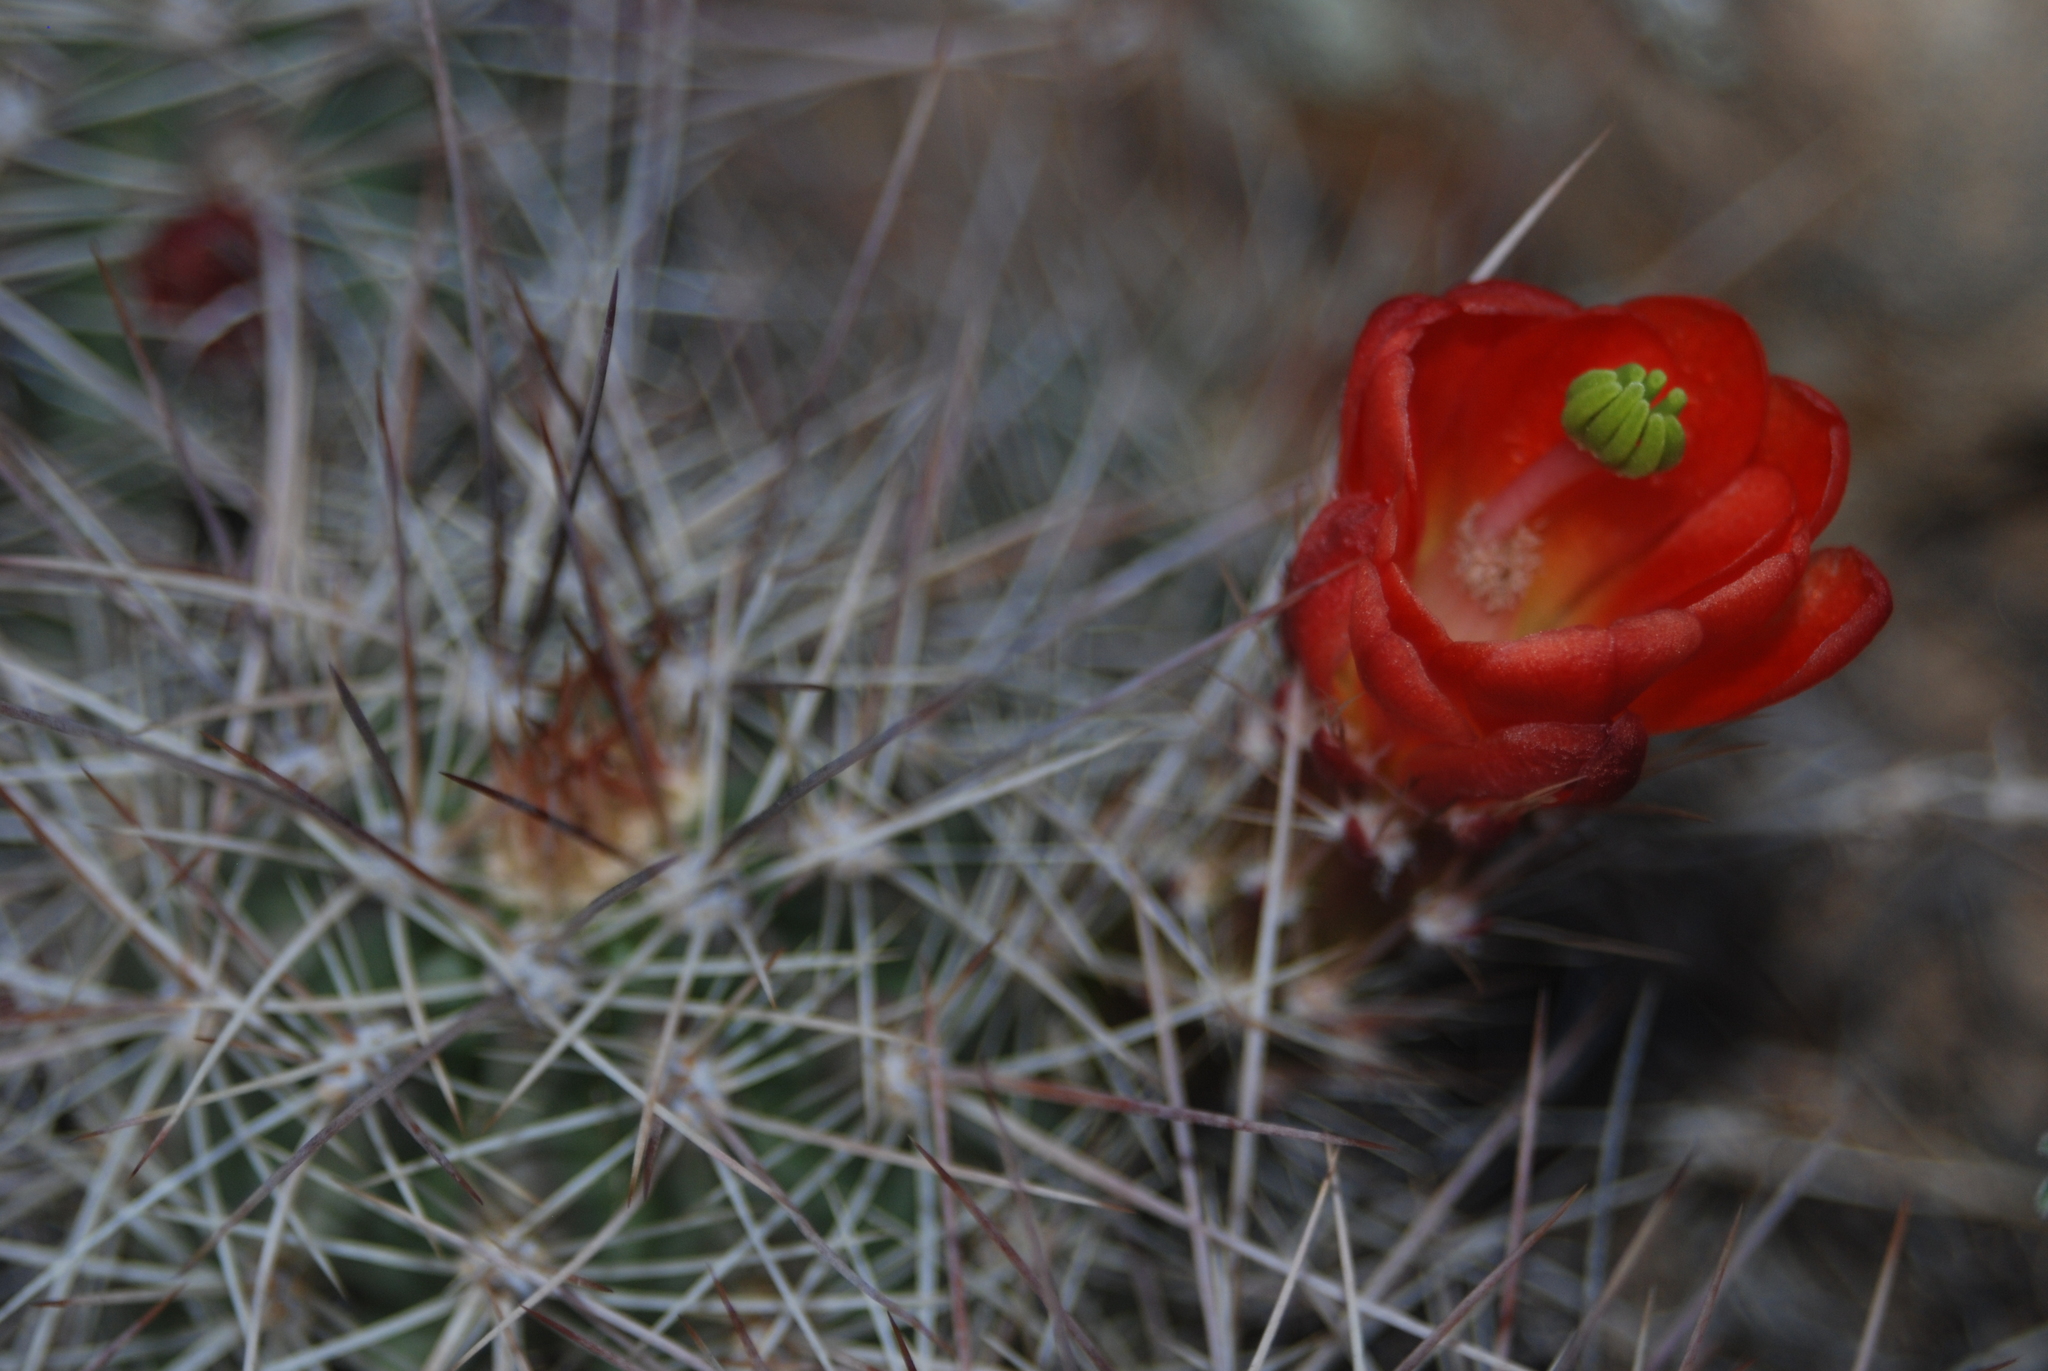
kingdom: Plantae
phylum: Tracheophyta
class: Magnoliopsida
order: Caryophyllales
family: Cactaceae
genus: Echinocereus
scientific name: Echinocereus coccineus
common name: Scarlet hedgehog cactus
